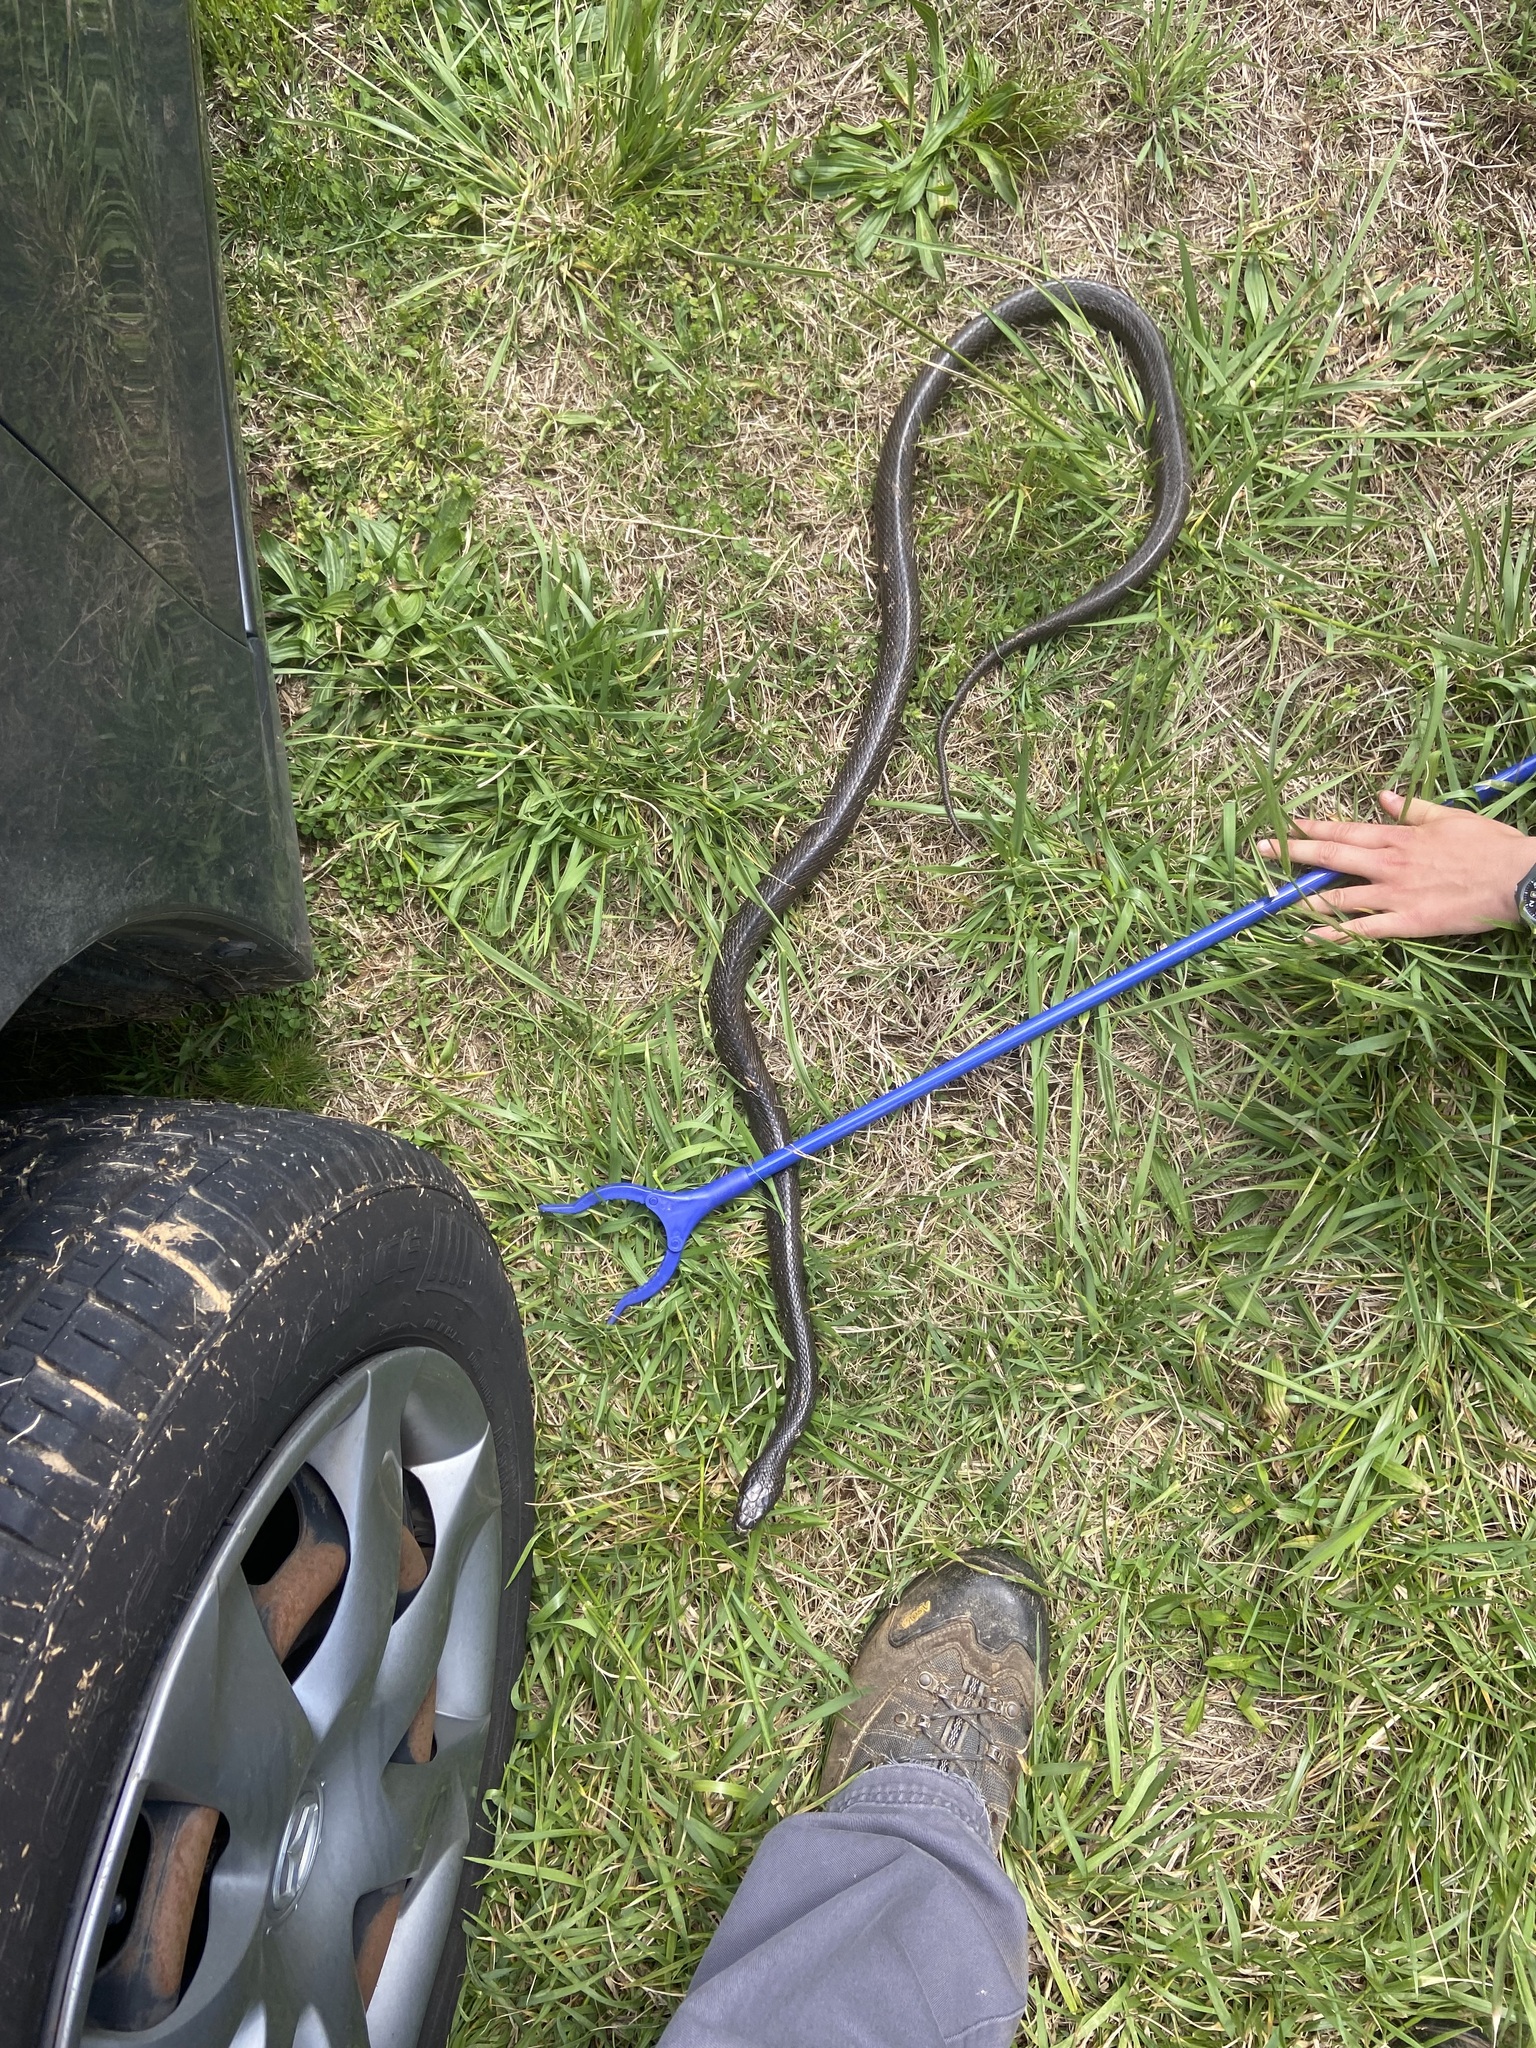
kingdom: Animalia
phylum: Chordata
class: Squamata
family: Colubridae
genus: Pantherophis
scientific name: Pantherophis alleghaniensis
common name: Eastern rat snake
